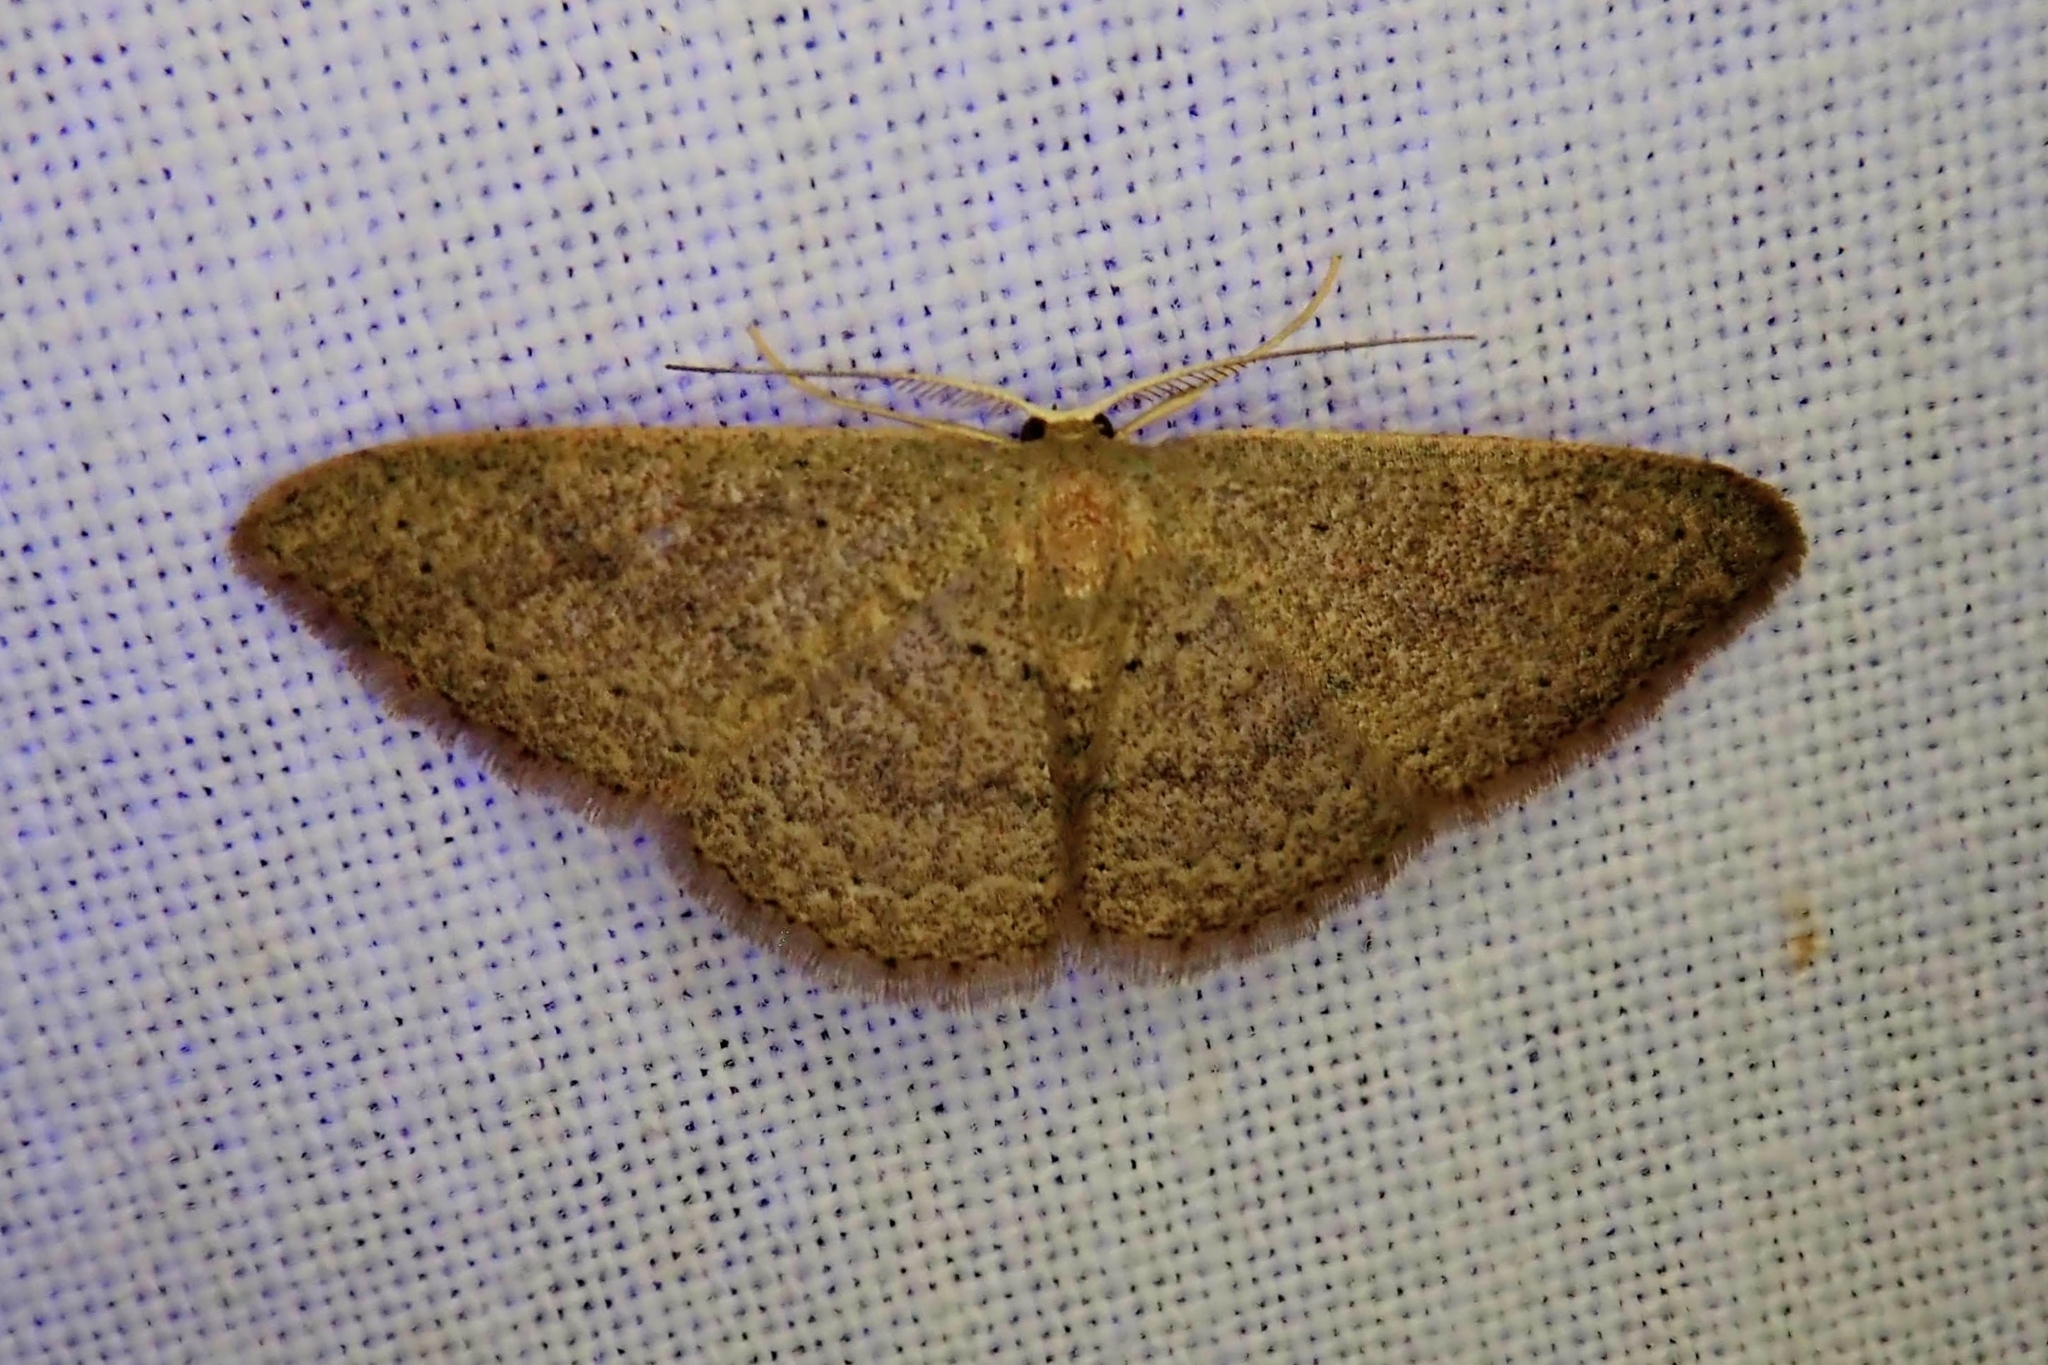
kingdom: Animalia
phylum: Arthropoda
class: Insecta
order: Lepidoptera
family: Geometridae
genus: Pleuroprucha
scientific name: Pleuroprucha insulsaria
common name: Common tan wave
